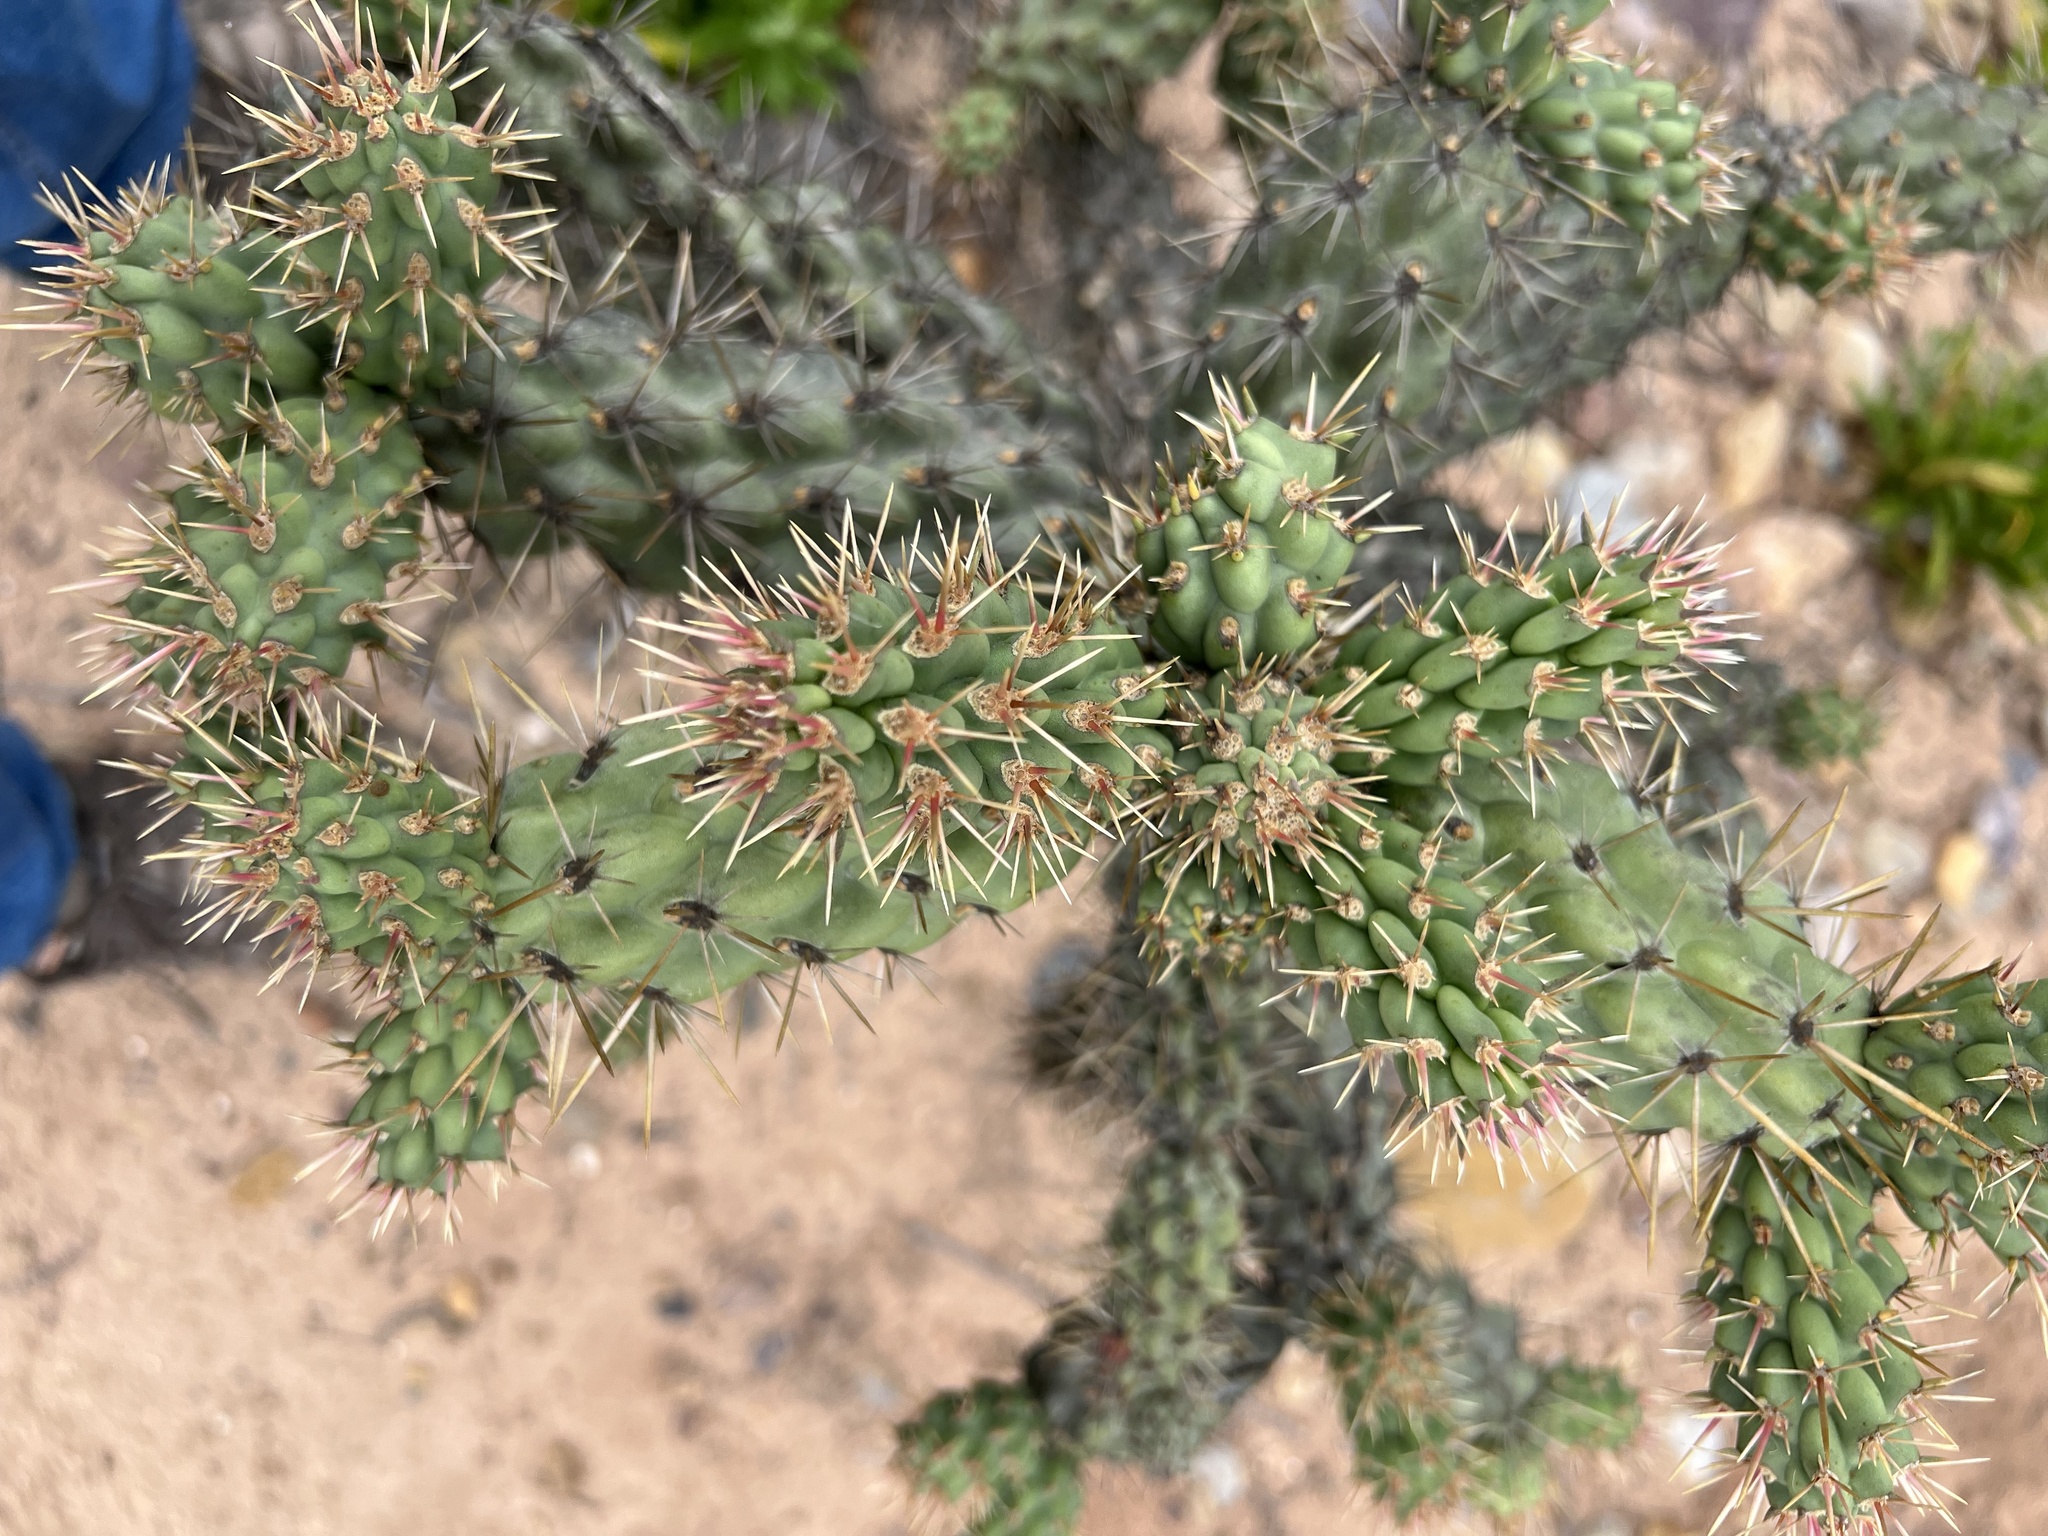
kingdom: Plantae
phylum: Tracheophyta
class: Magnoliopsida
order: Caryophyllales
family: Cactaceae
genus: Cylindropuntia
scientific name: Cylindropuntia prolifera
